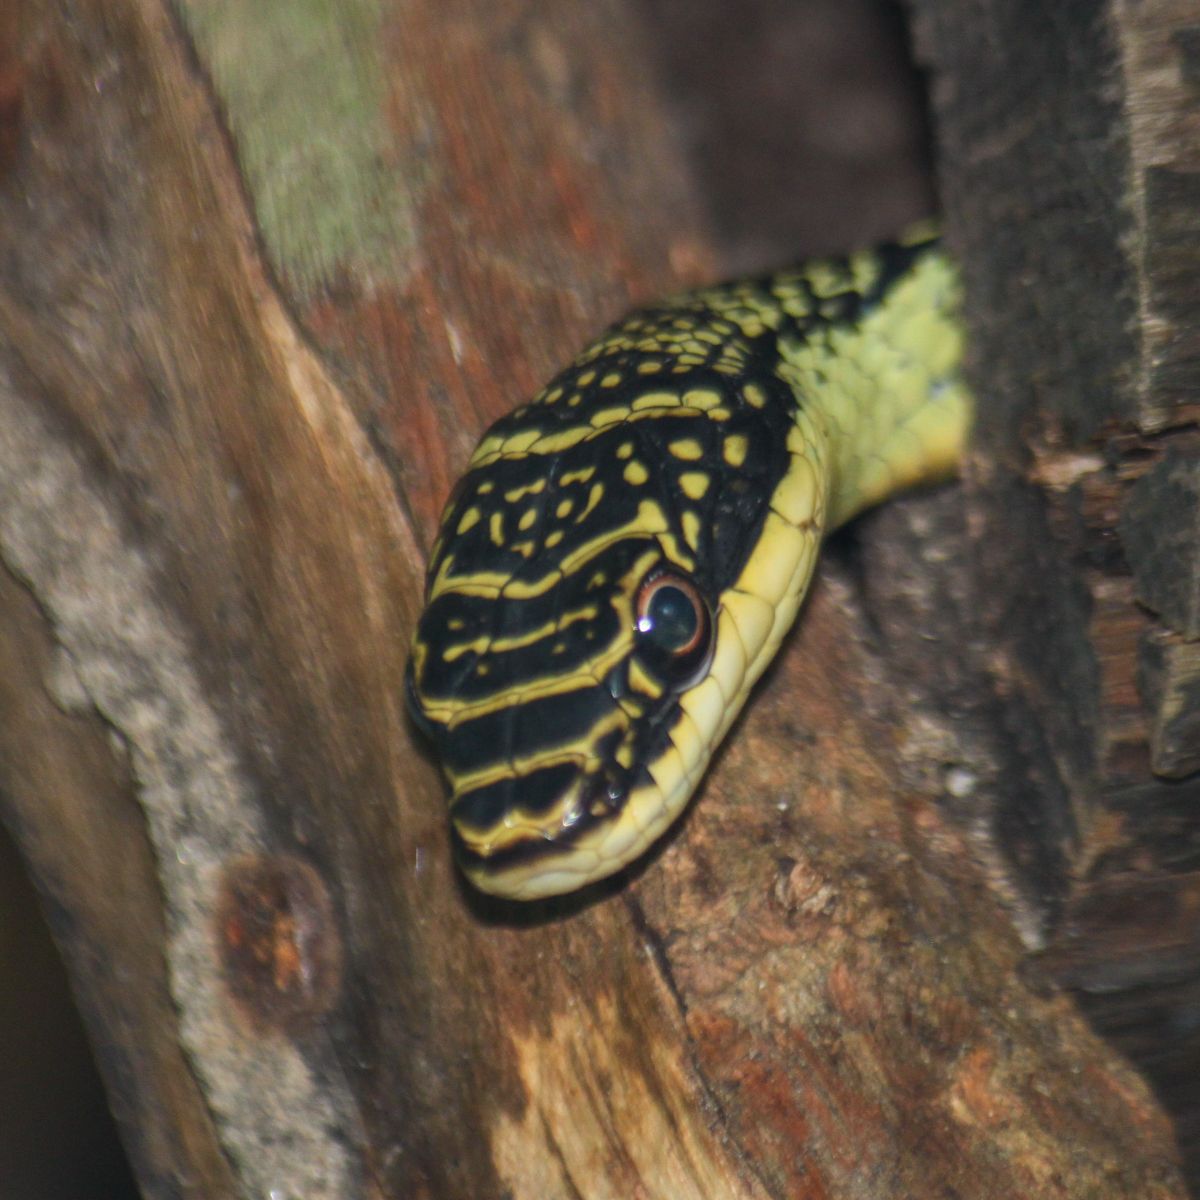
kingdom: Animalia
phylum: Chordata
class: Squamata
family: Colubridae
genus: Chrysopelea
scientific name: Chrysopelea ornata
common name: Golden flying snake
